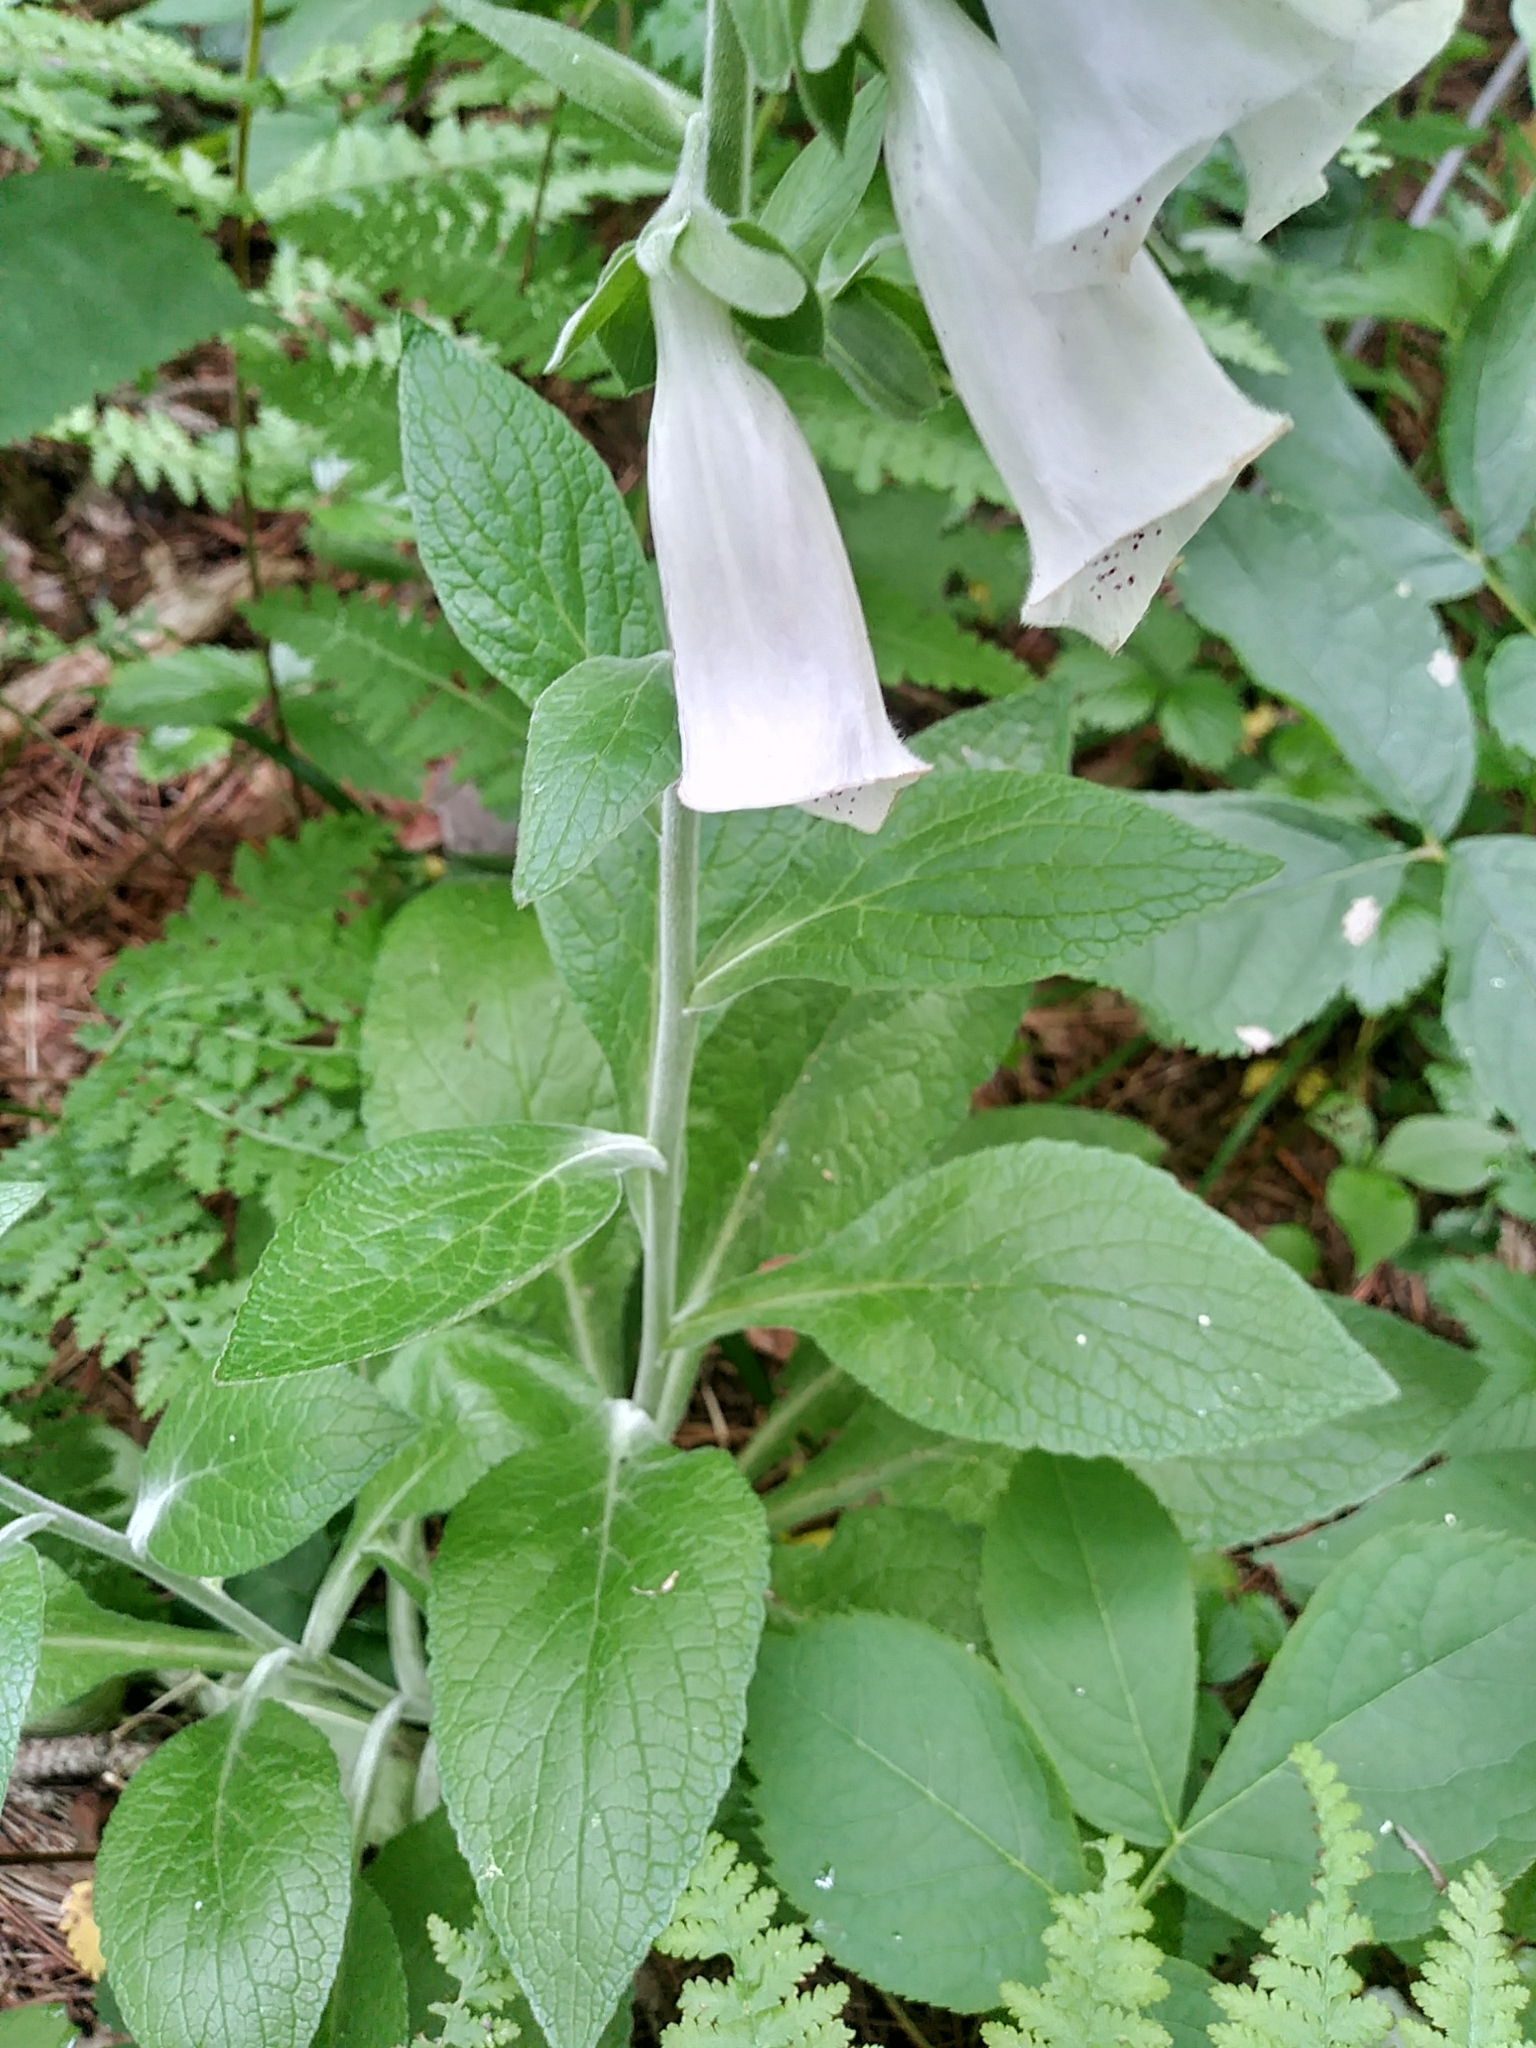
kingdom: Plantae
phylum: Tracheophyta
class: Magnoliopsida
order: Lamiales
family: Plantaginaceae
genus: Digitalis
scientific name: Digitalis purpurea
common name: Foxglove
